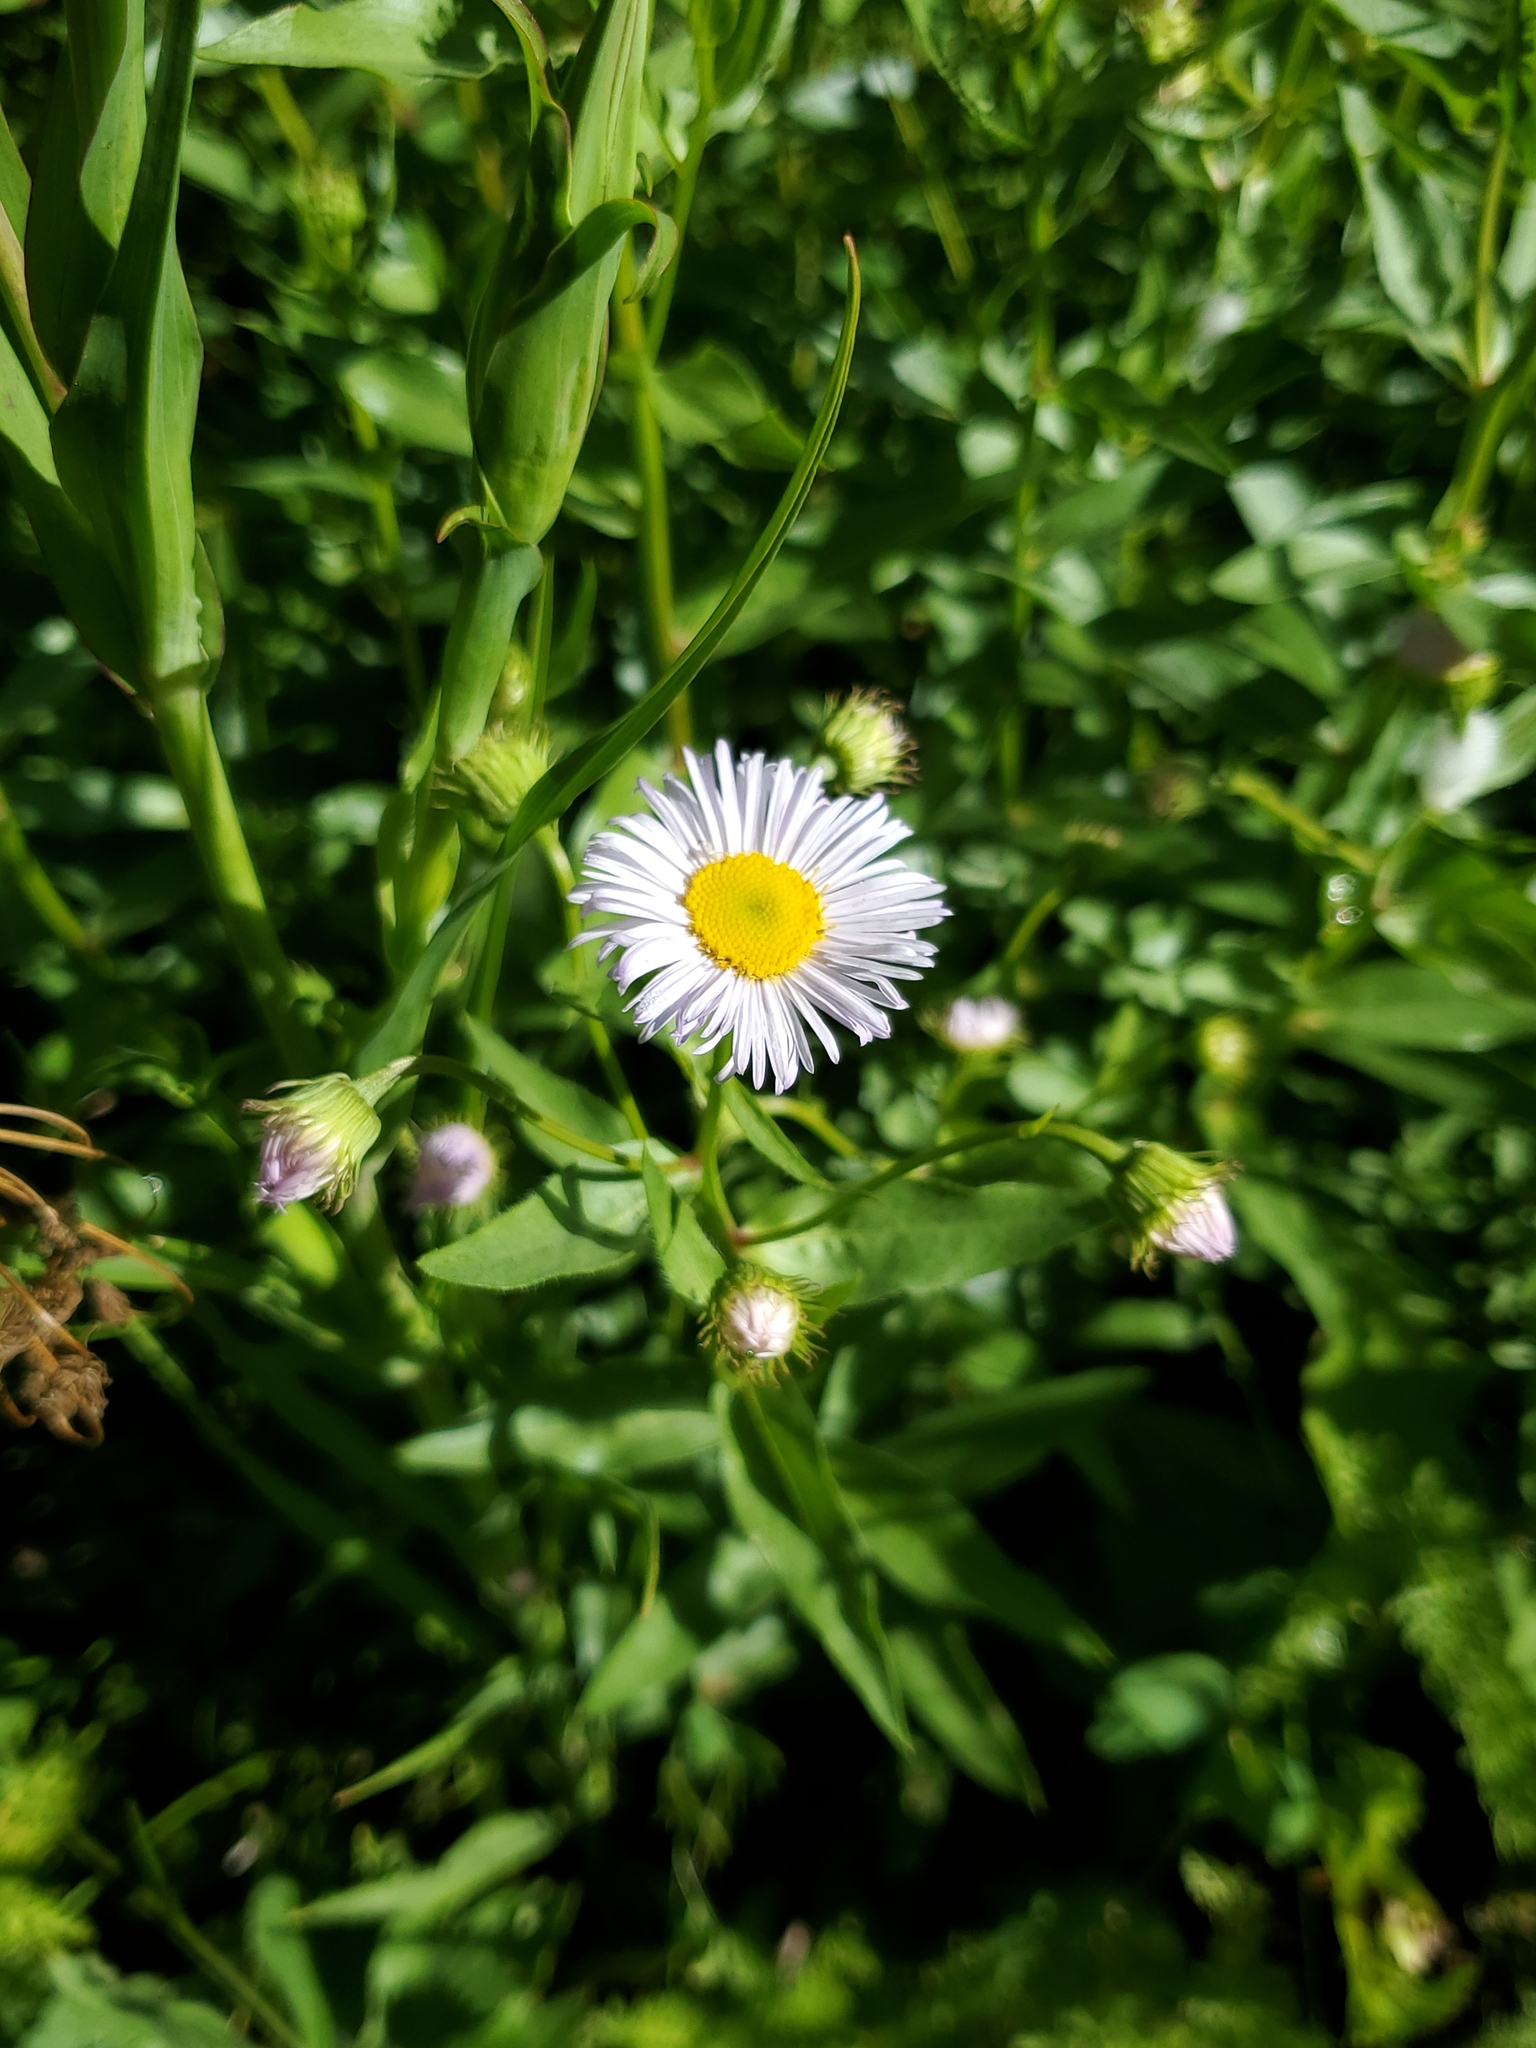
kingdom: Plantae
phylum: Tracheophyta
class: Magnoliopsida
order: Asterales
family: Asteraceae
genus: Erigeron
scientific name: Erigeron strigosus
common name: Common eastern fleabane
